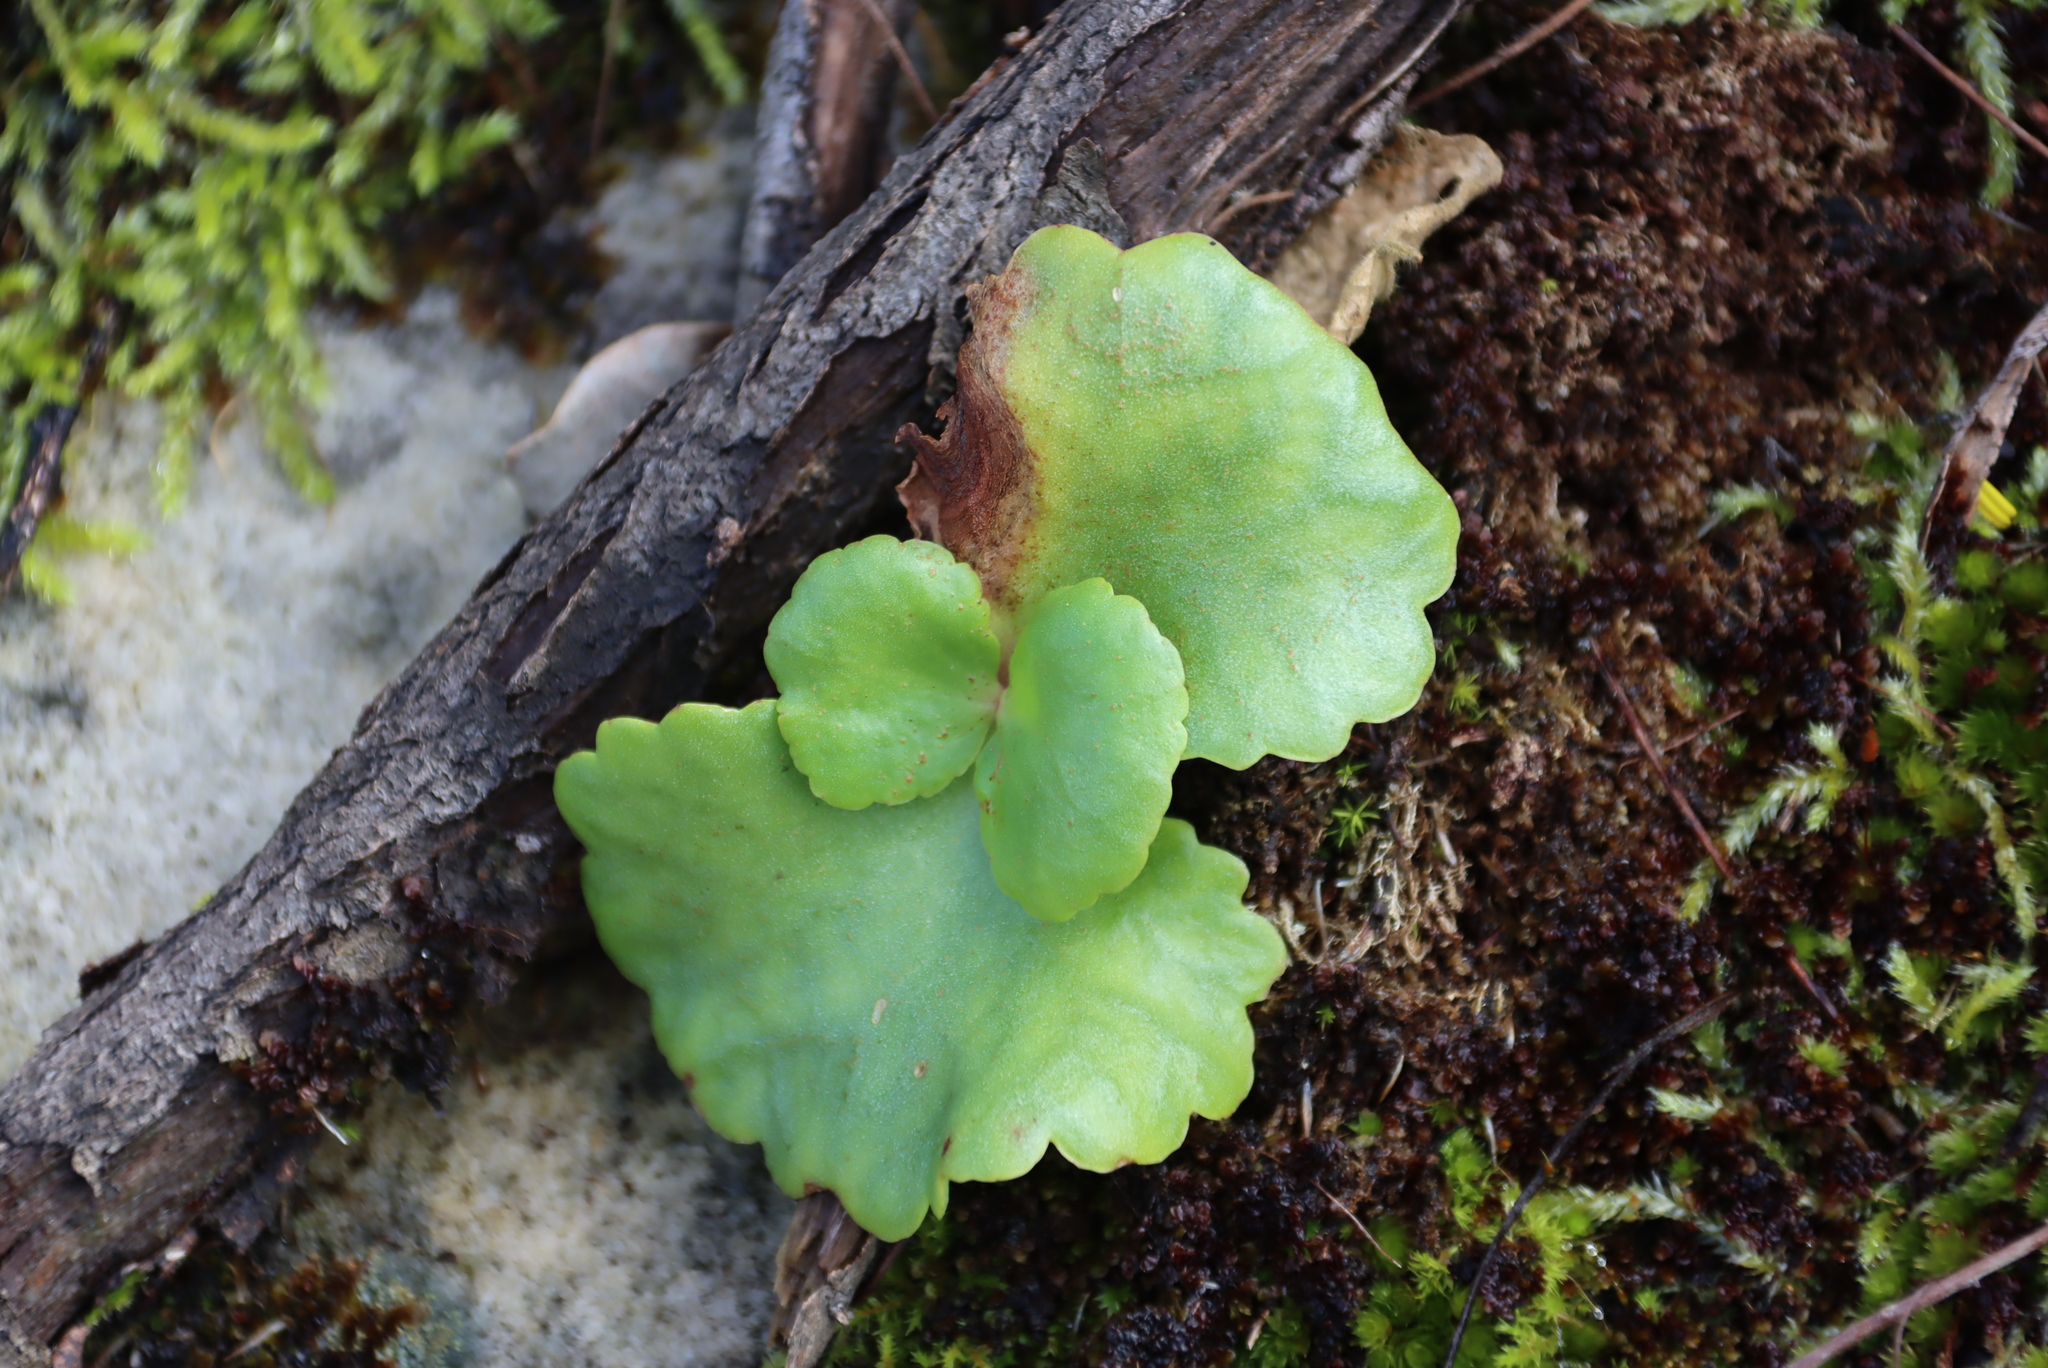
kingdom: Plantae
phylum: Tracheophyta
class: Magnoliopsida
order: Saxifragales
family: Crassulaceae
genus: Crassula
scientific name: Crassula capensis
